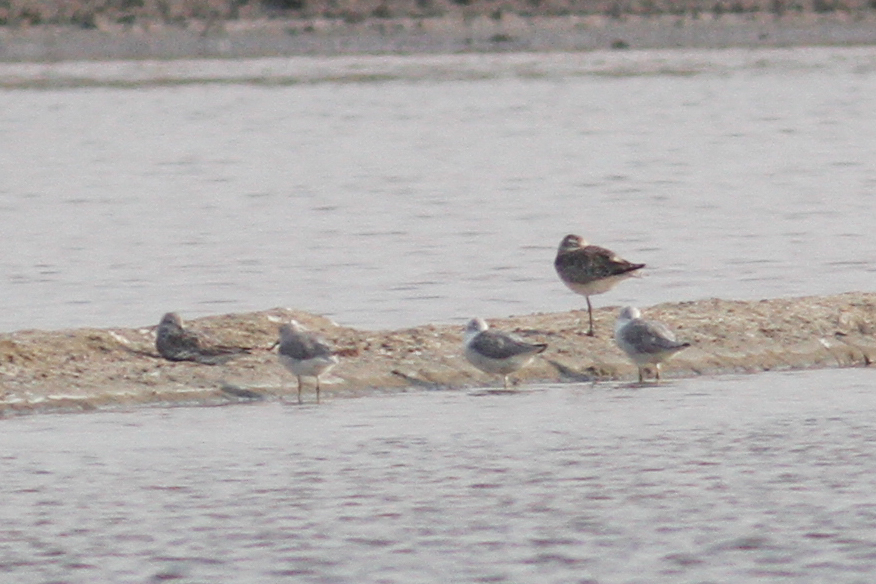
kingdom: Animalia
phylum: Chordata
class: Aves
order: Charadriiformes
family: Scolopacidae
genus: Tringa
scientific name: Tringa guttifer
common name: Nordmann's greenshank
